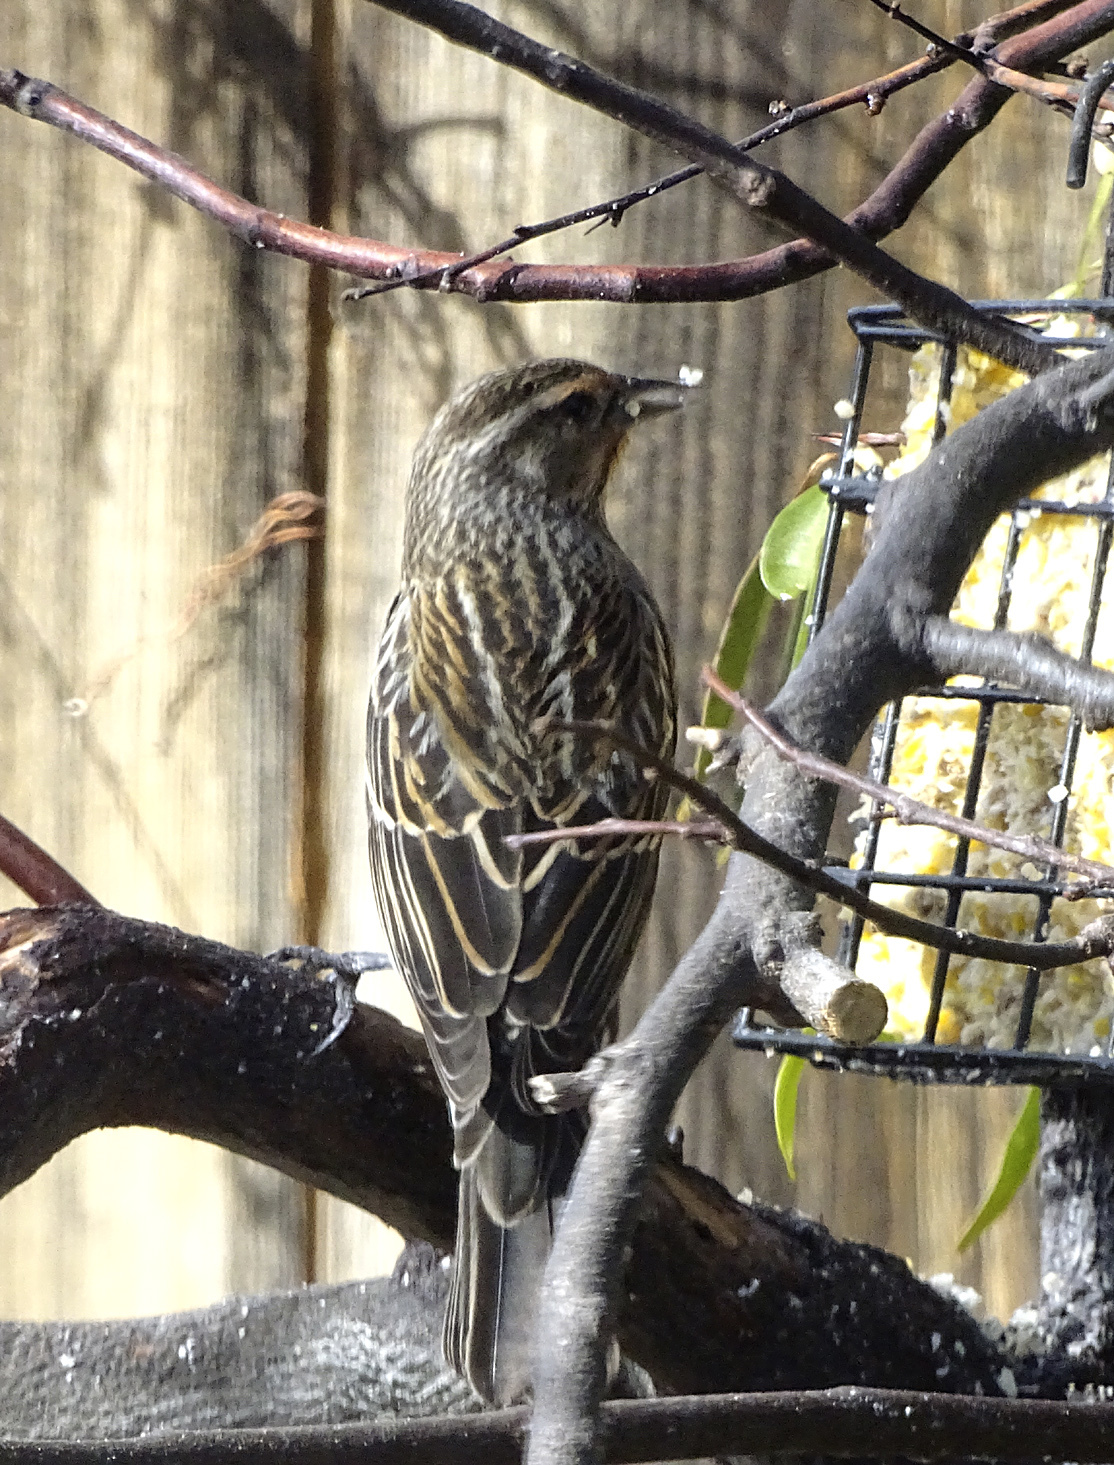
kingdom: Animalia
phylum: Chordata
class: Aves
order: Passeriformes
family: Icteridae
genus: Agelaius
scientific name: Agelaius phoeniceus
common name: Red-winged blackbird
